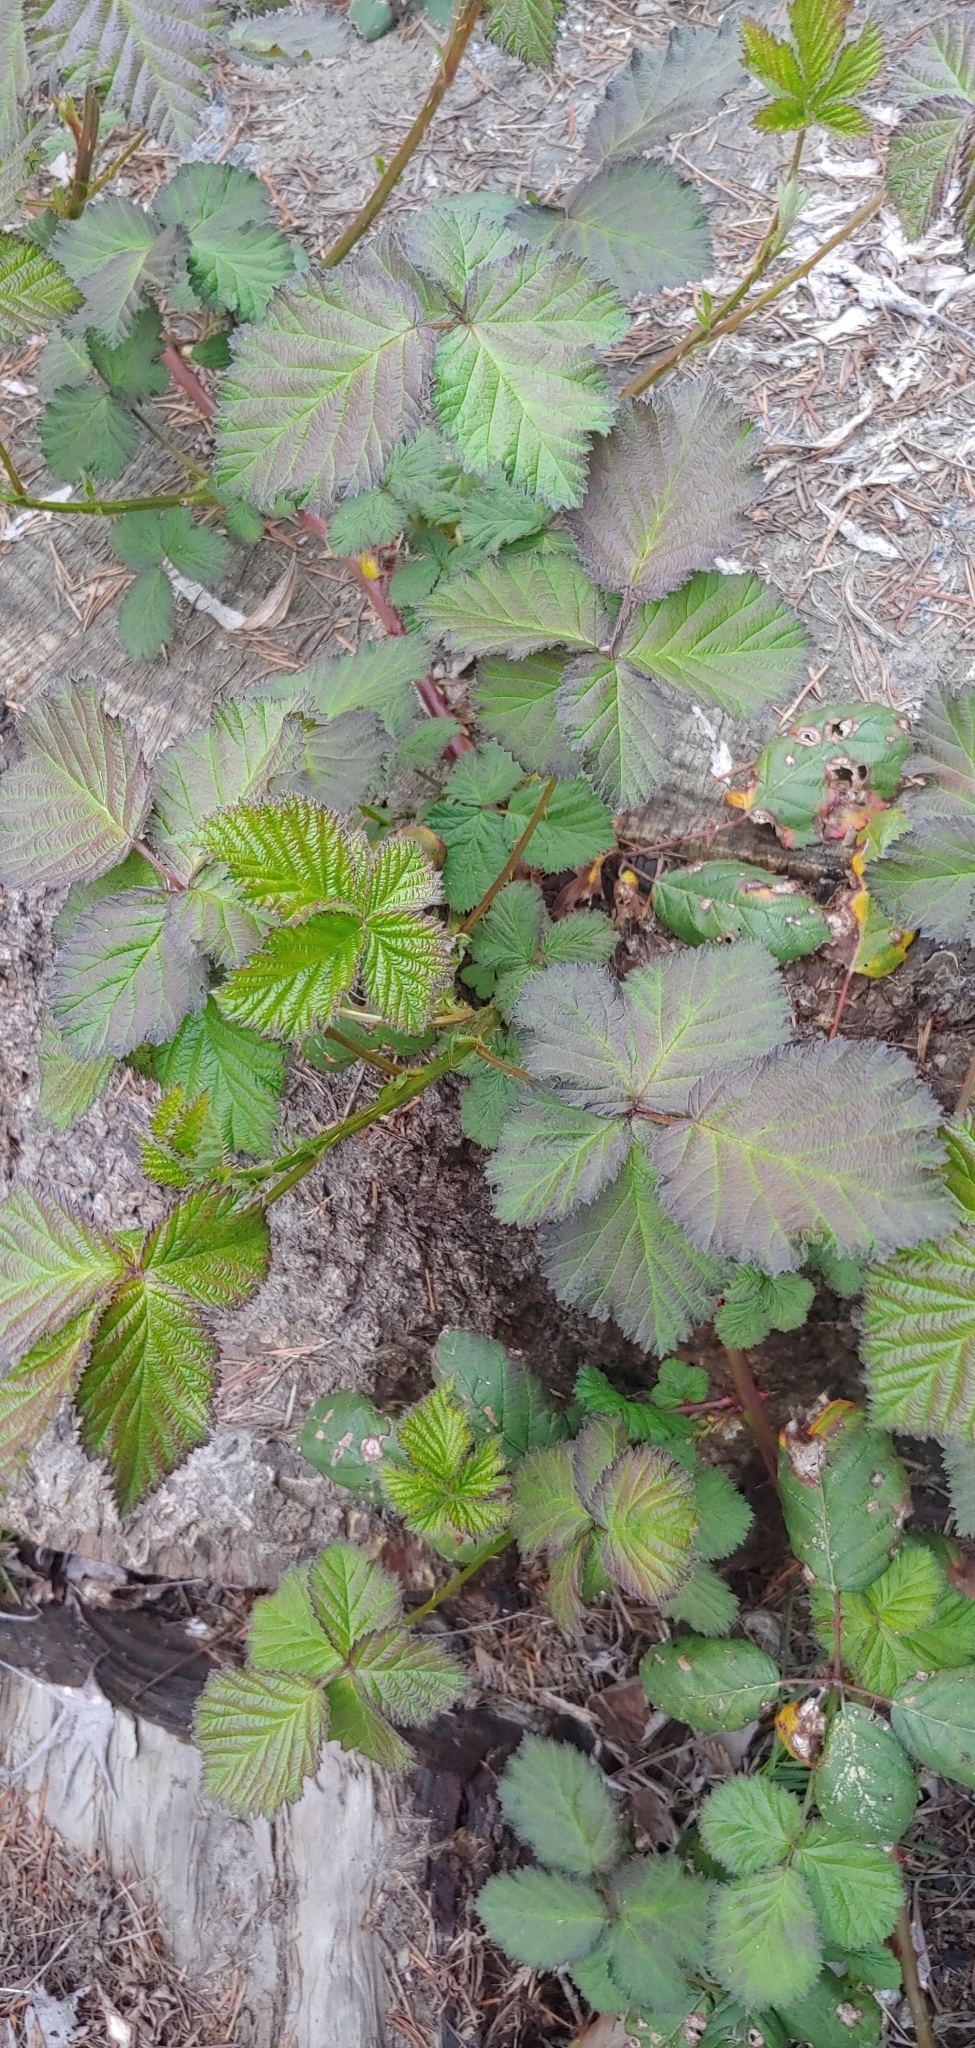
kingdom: Plantae
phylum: Tracheophyta
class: Magnoliopsida
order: Rosales
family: Rosaceae
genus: Rubus
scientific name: Rubus armeniacus
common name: Himalayan blackberry
